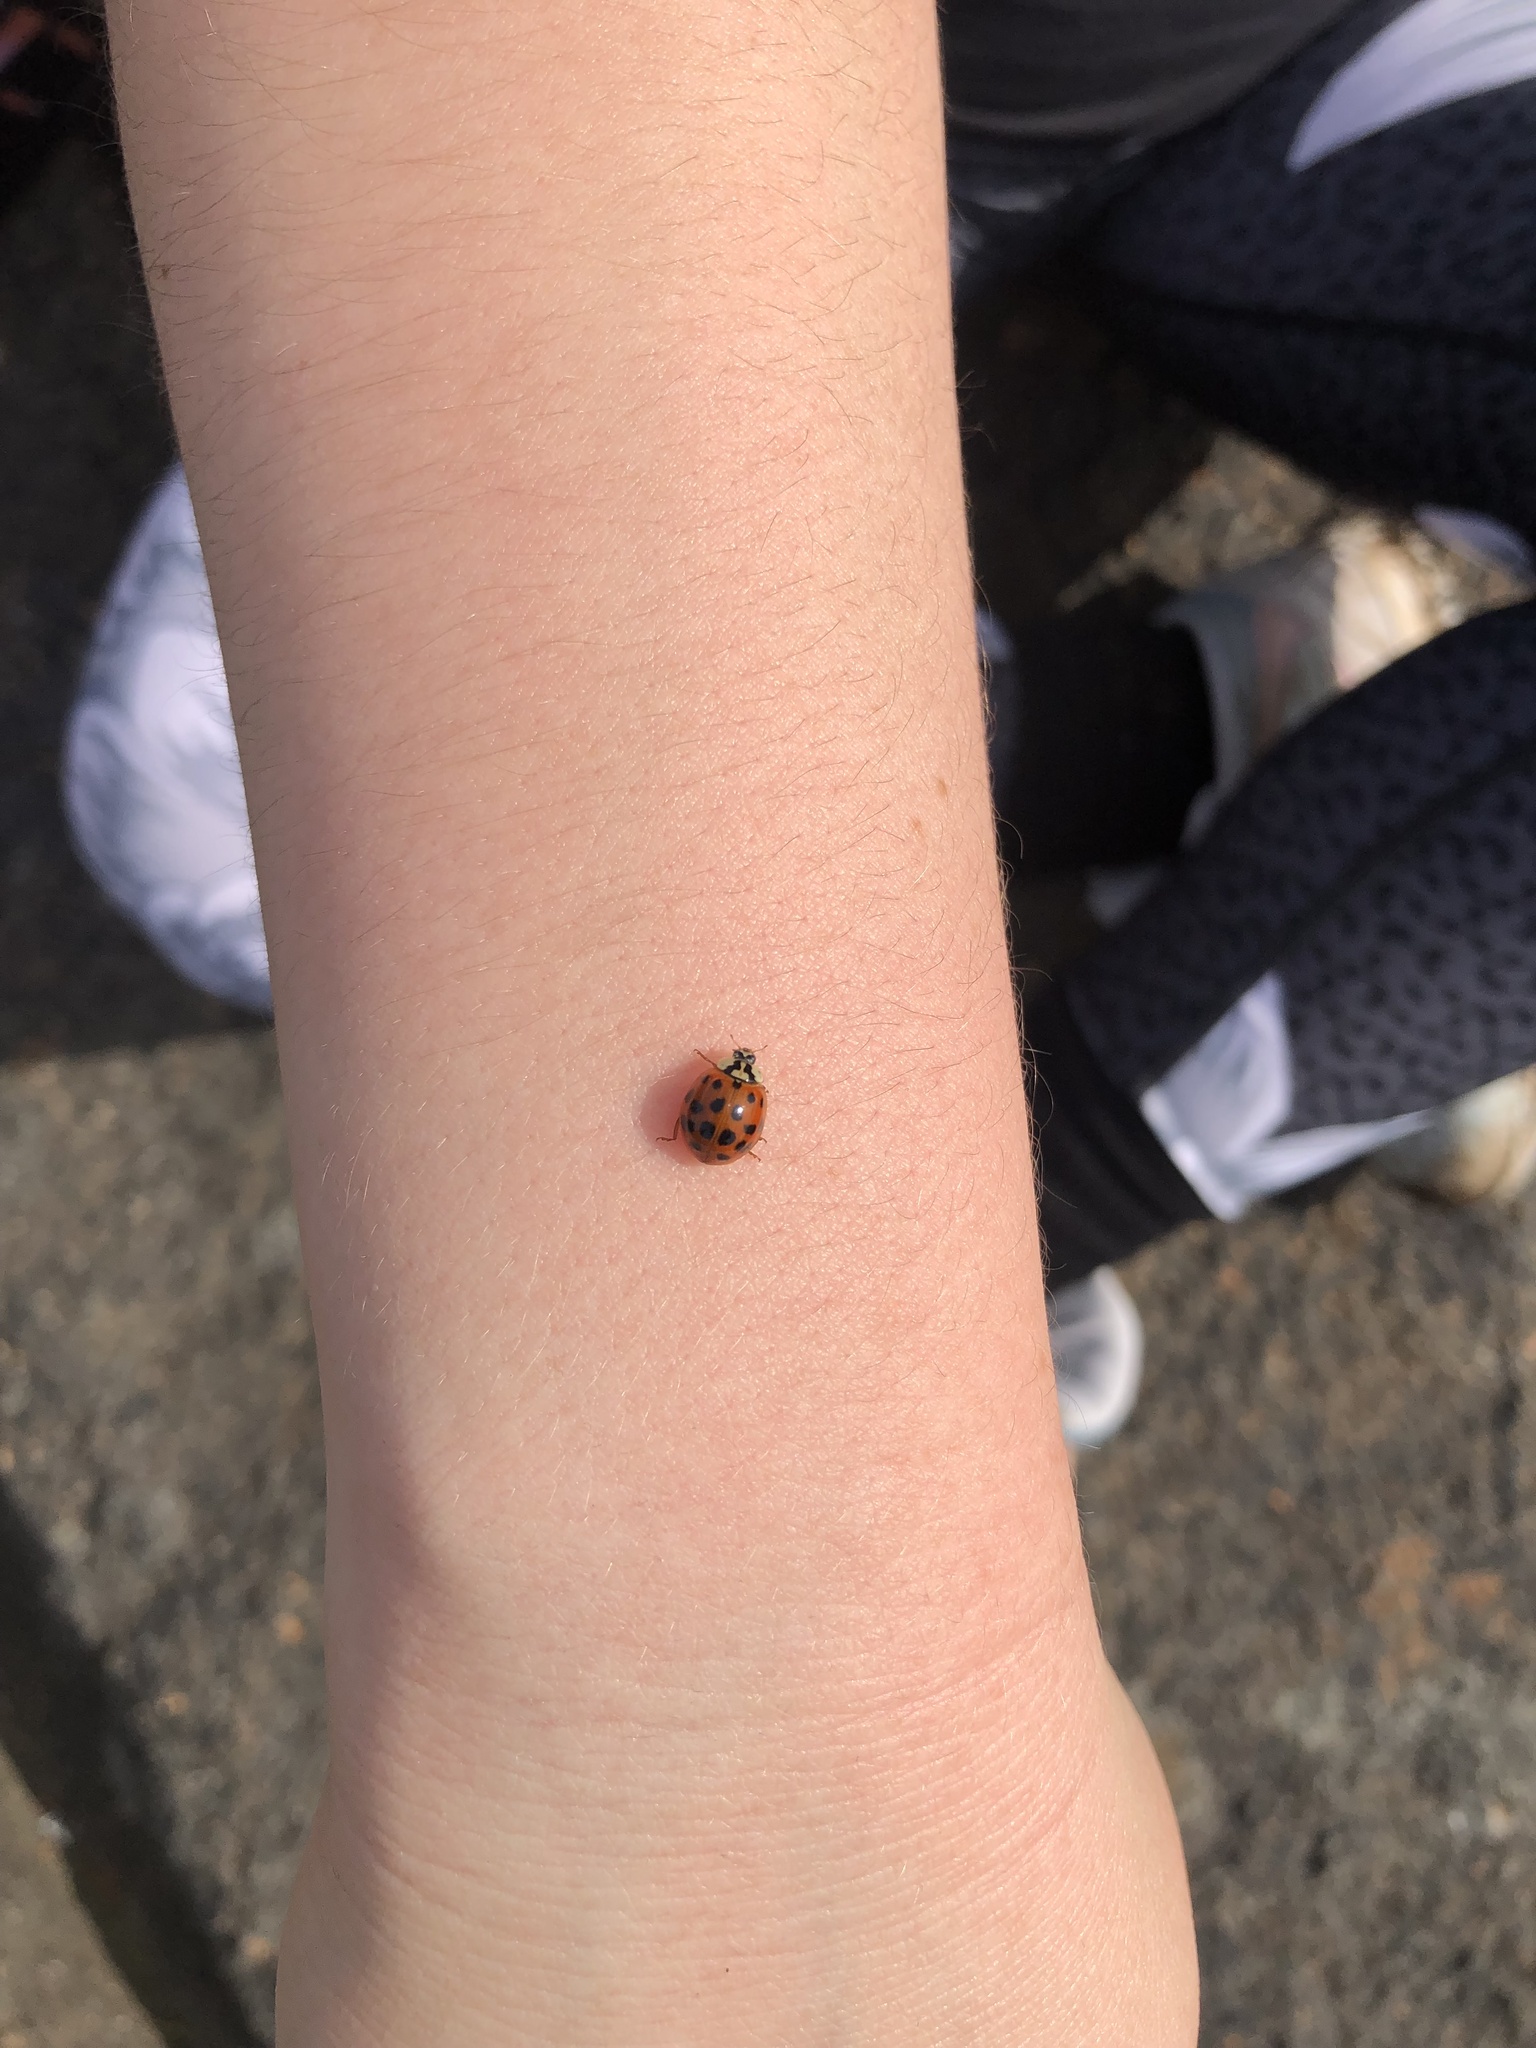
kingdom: Animalia
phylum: Arthropoda
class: Insecta
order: Coleoptera
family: Coccinellidae
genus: Harmonia
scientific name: Harmonia axyridis
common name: Harlequin ladybird
